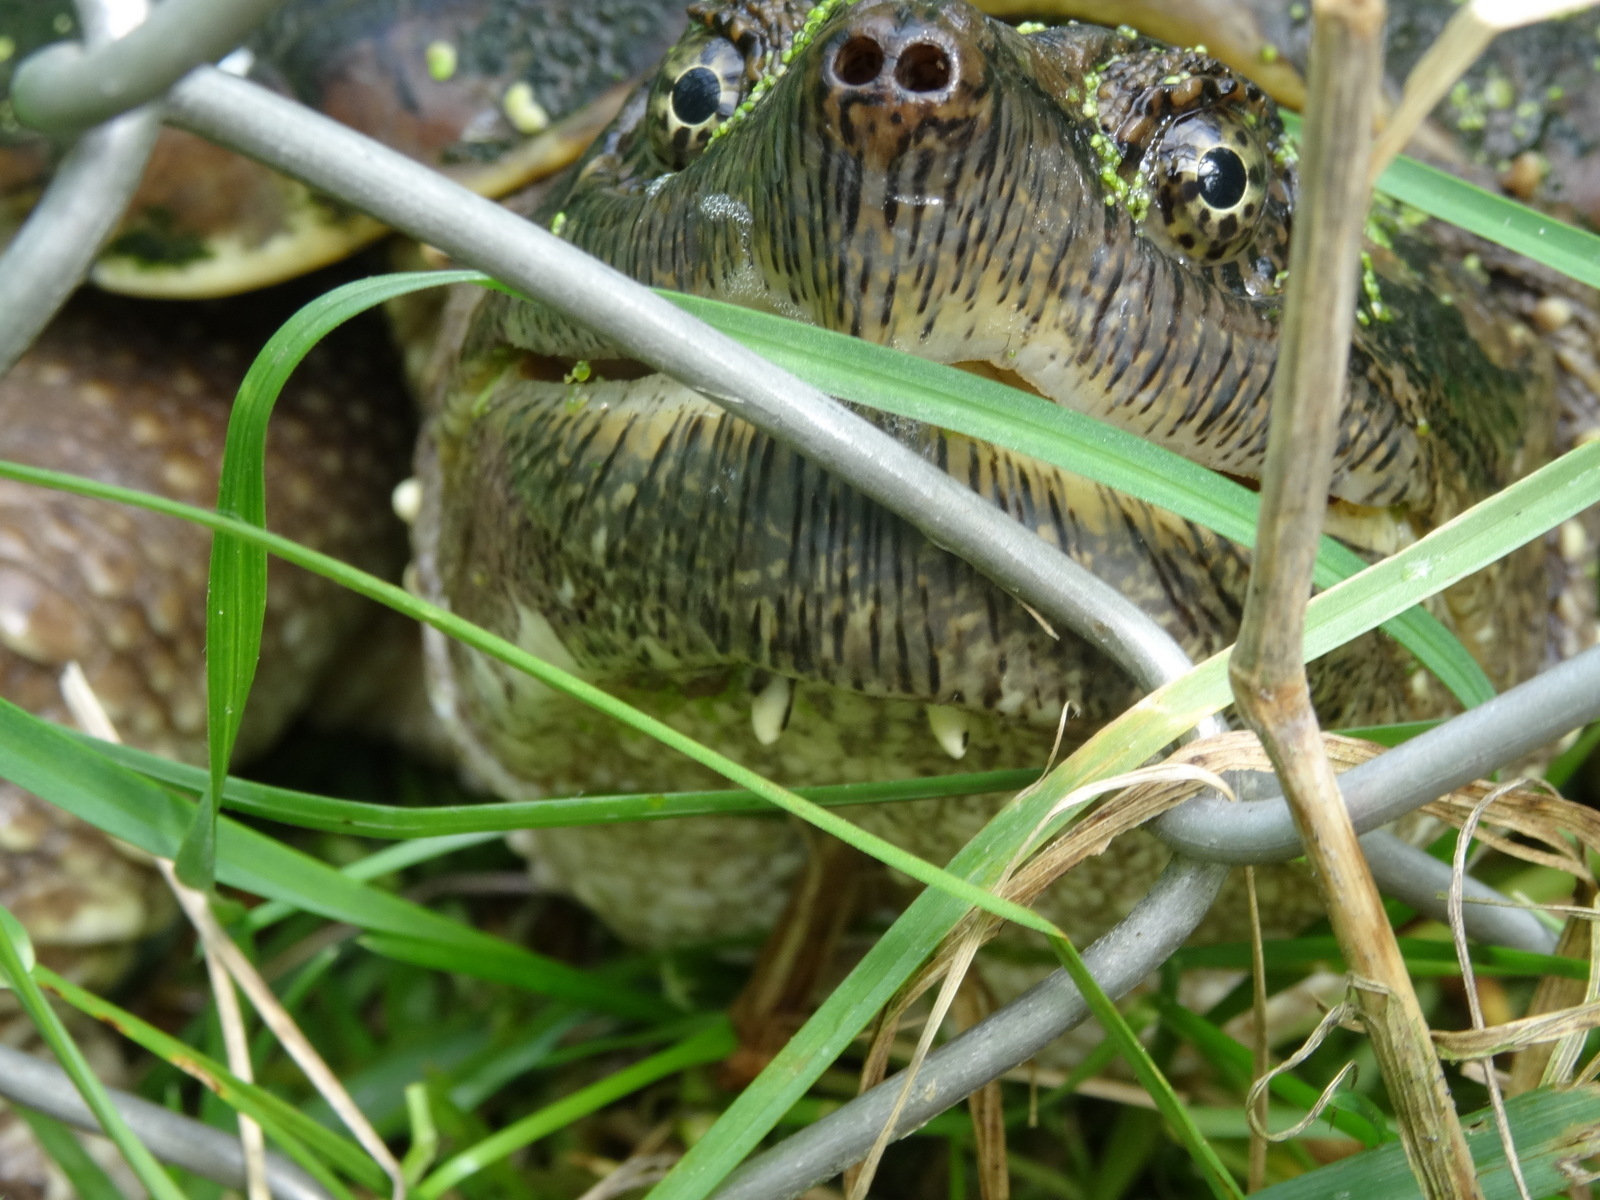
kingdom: Animalia
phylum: Chordata
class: Testudines
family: Chelydridae
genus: Chelydra
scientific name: Chelydra serpentina
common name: Common snapping turtle
